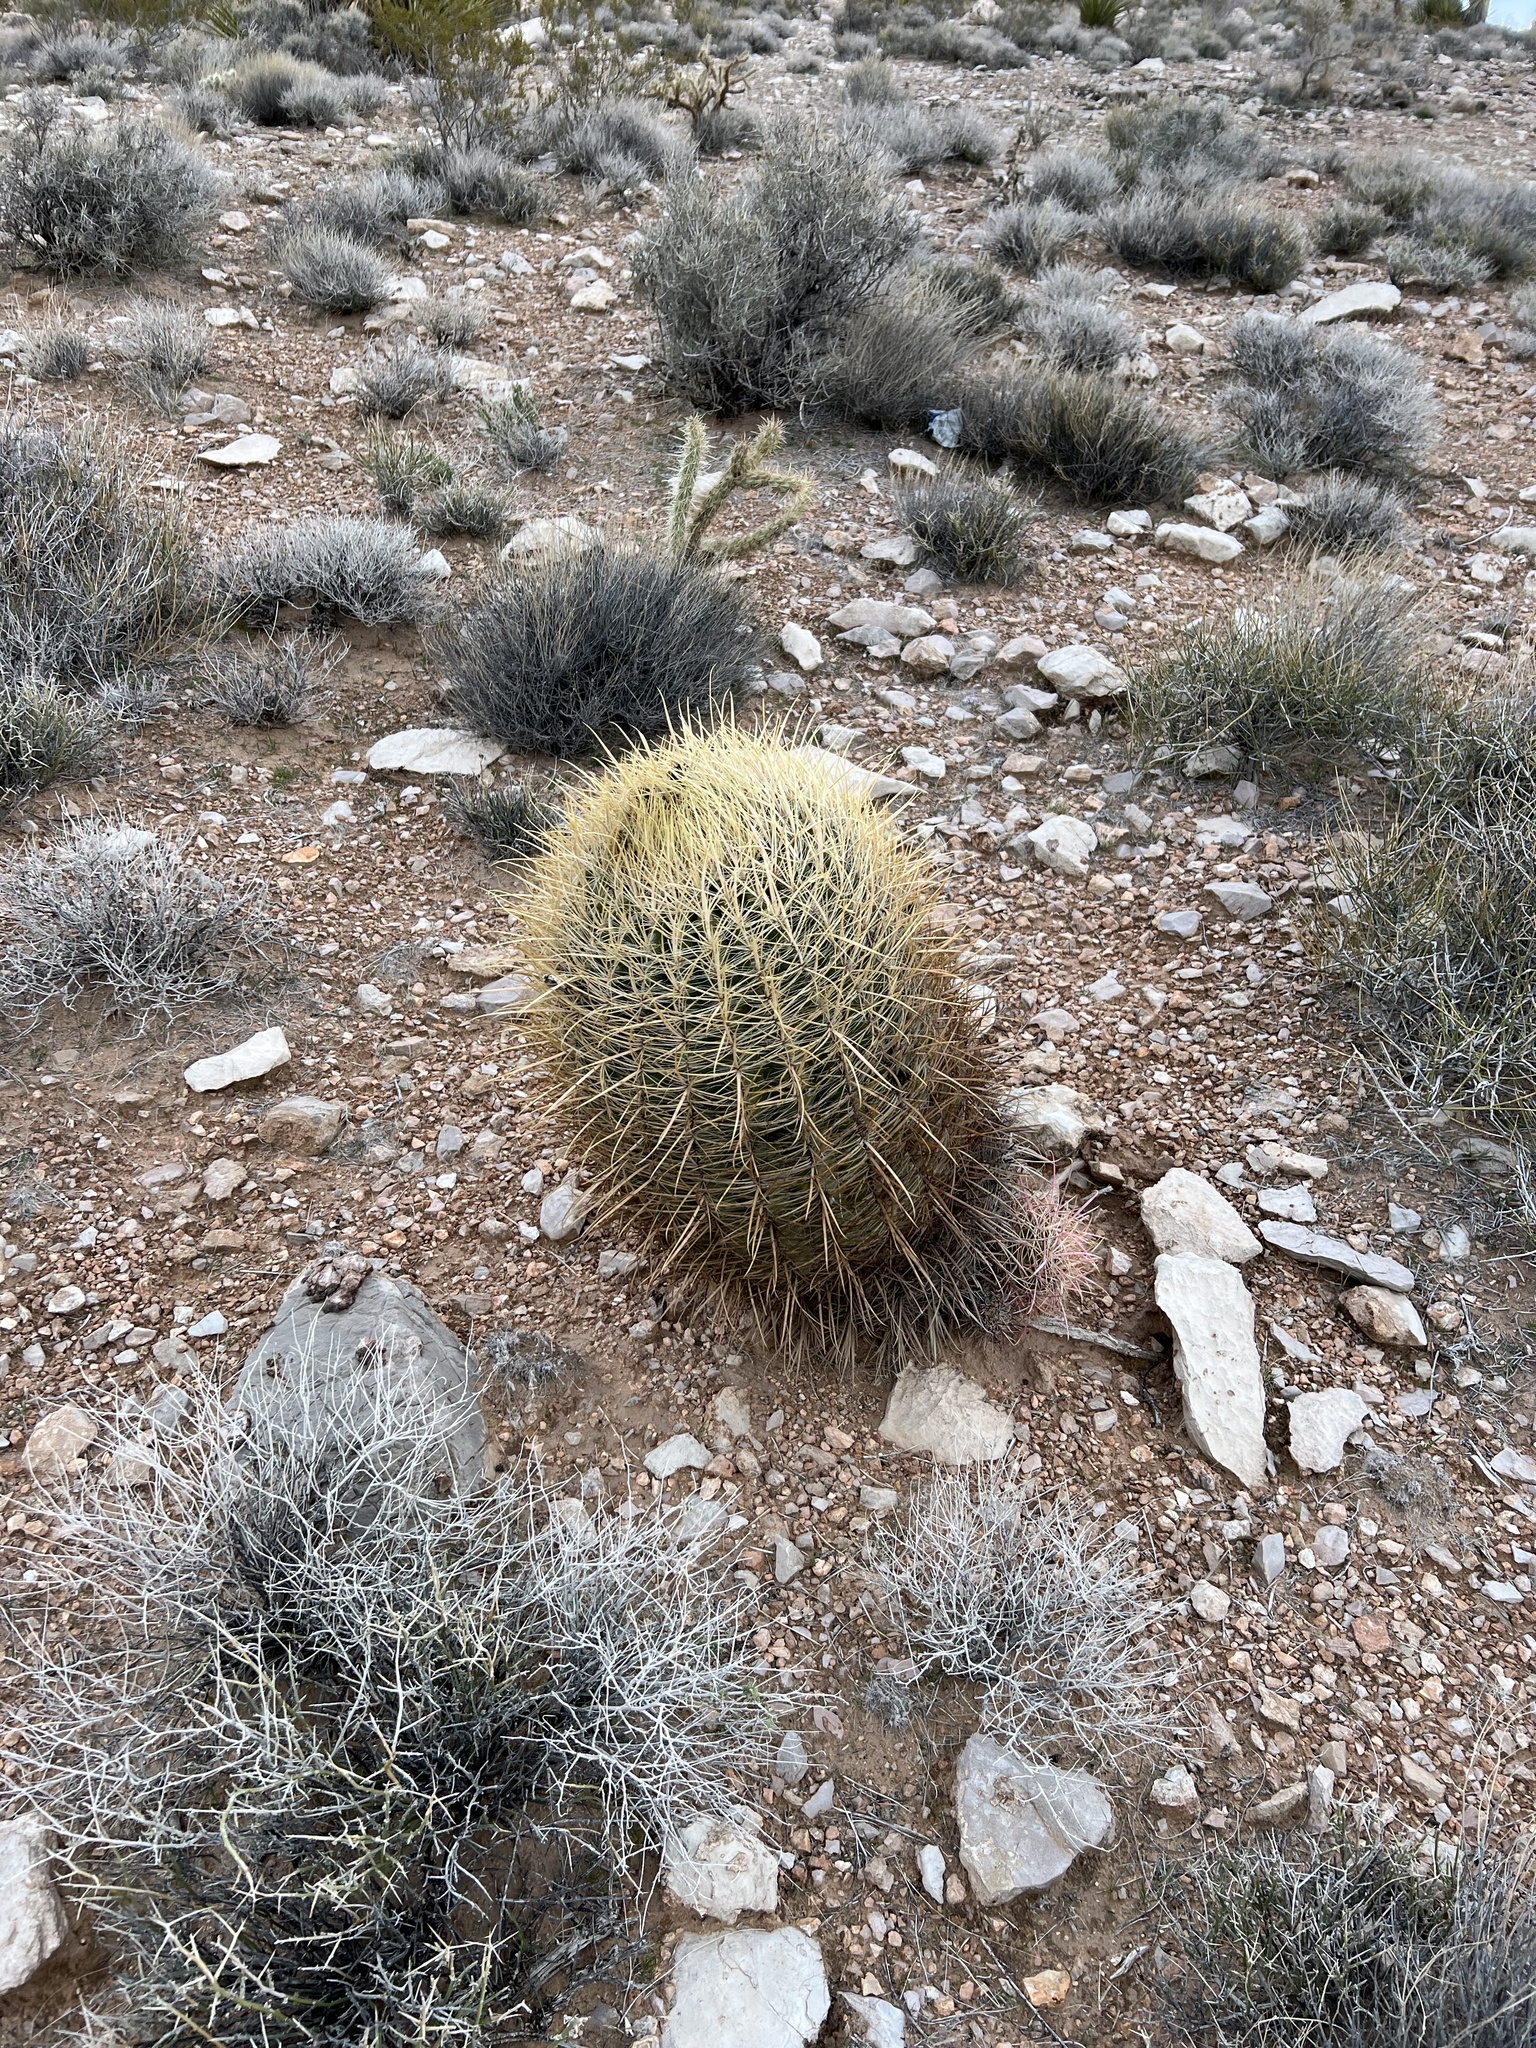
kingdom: Plantae
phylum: Tracheophyta
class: Magnoliopsida
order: Caryophyllales
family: Cactaceae
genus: Ferocactus
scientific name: Ferocactus cylindraceus
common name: California barrel cactus
